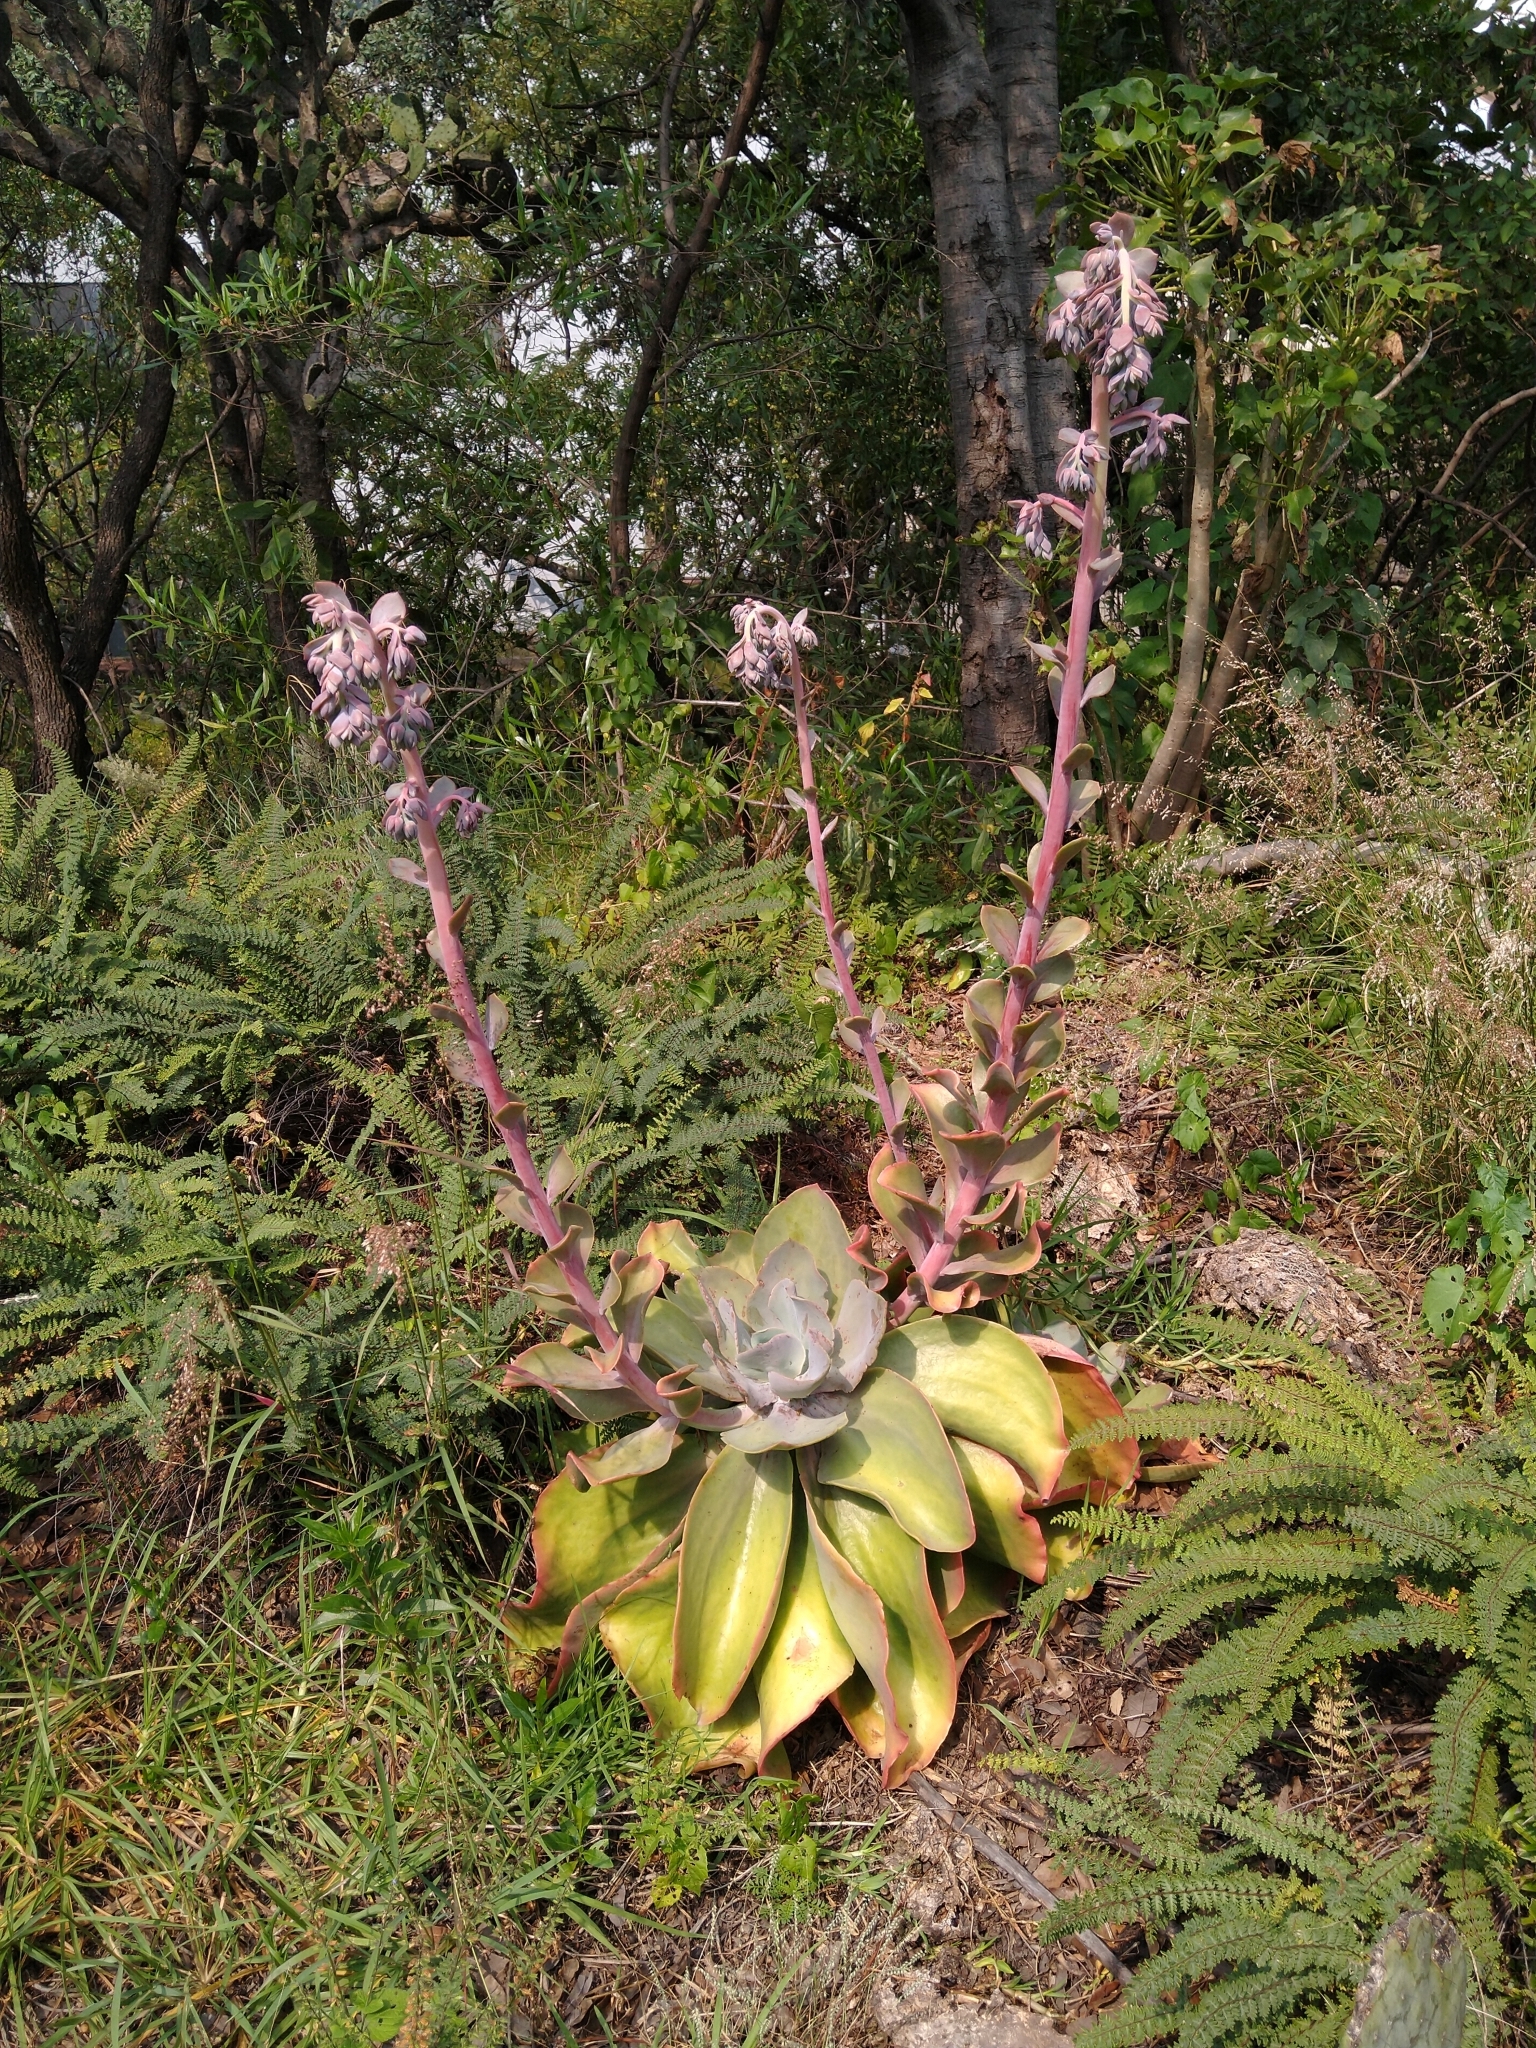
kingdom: Plantae
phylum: Tracheophyta
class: Magnoliopsida
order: Saxifragales
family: Crassulaceae
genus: Echeveria
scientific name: Echeveria gibbiflora
